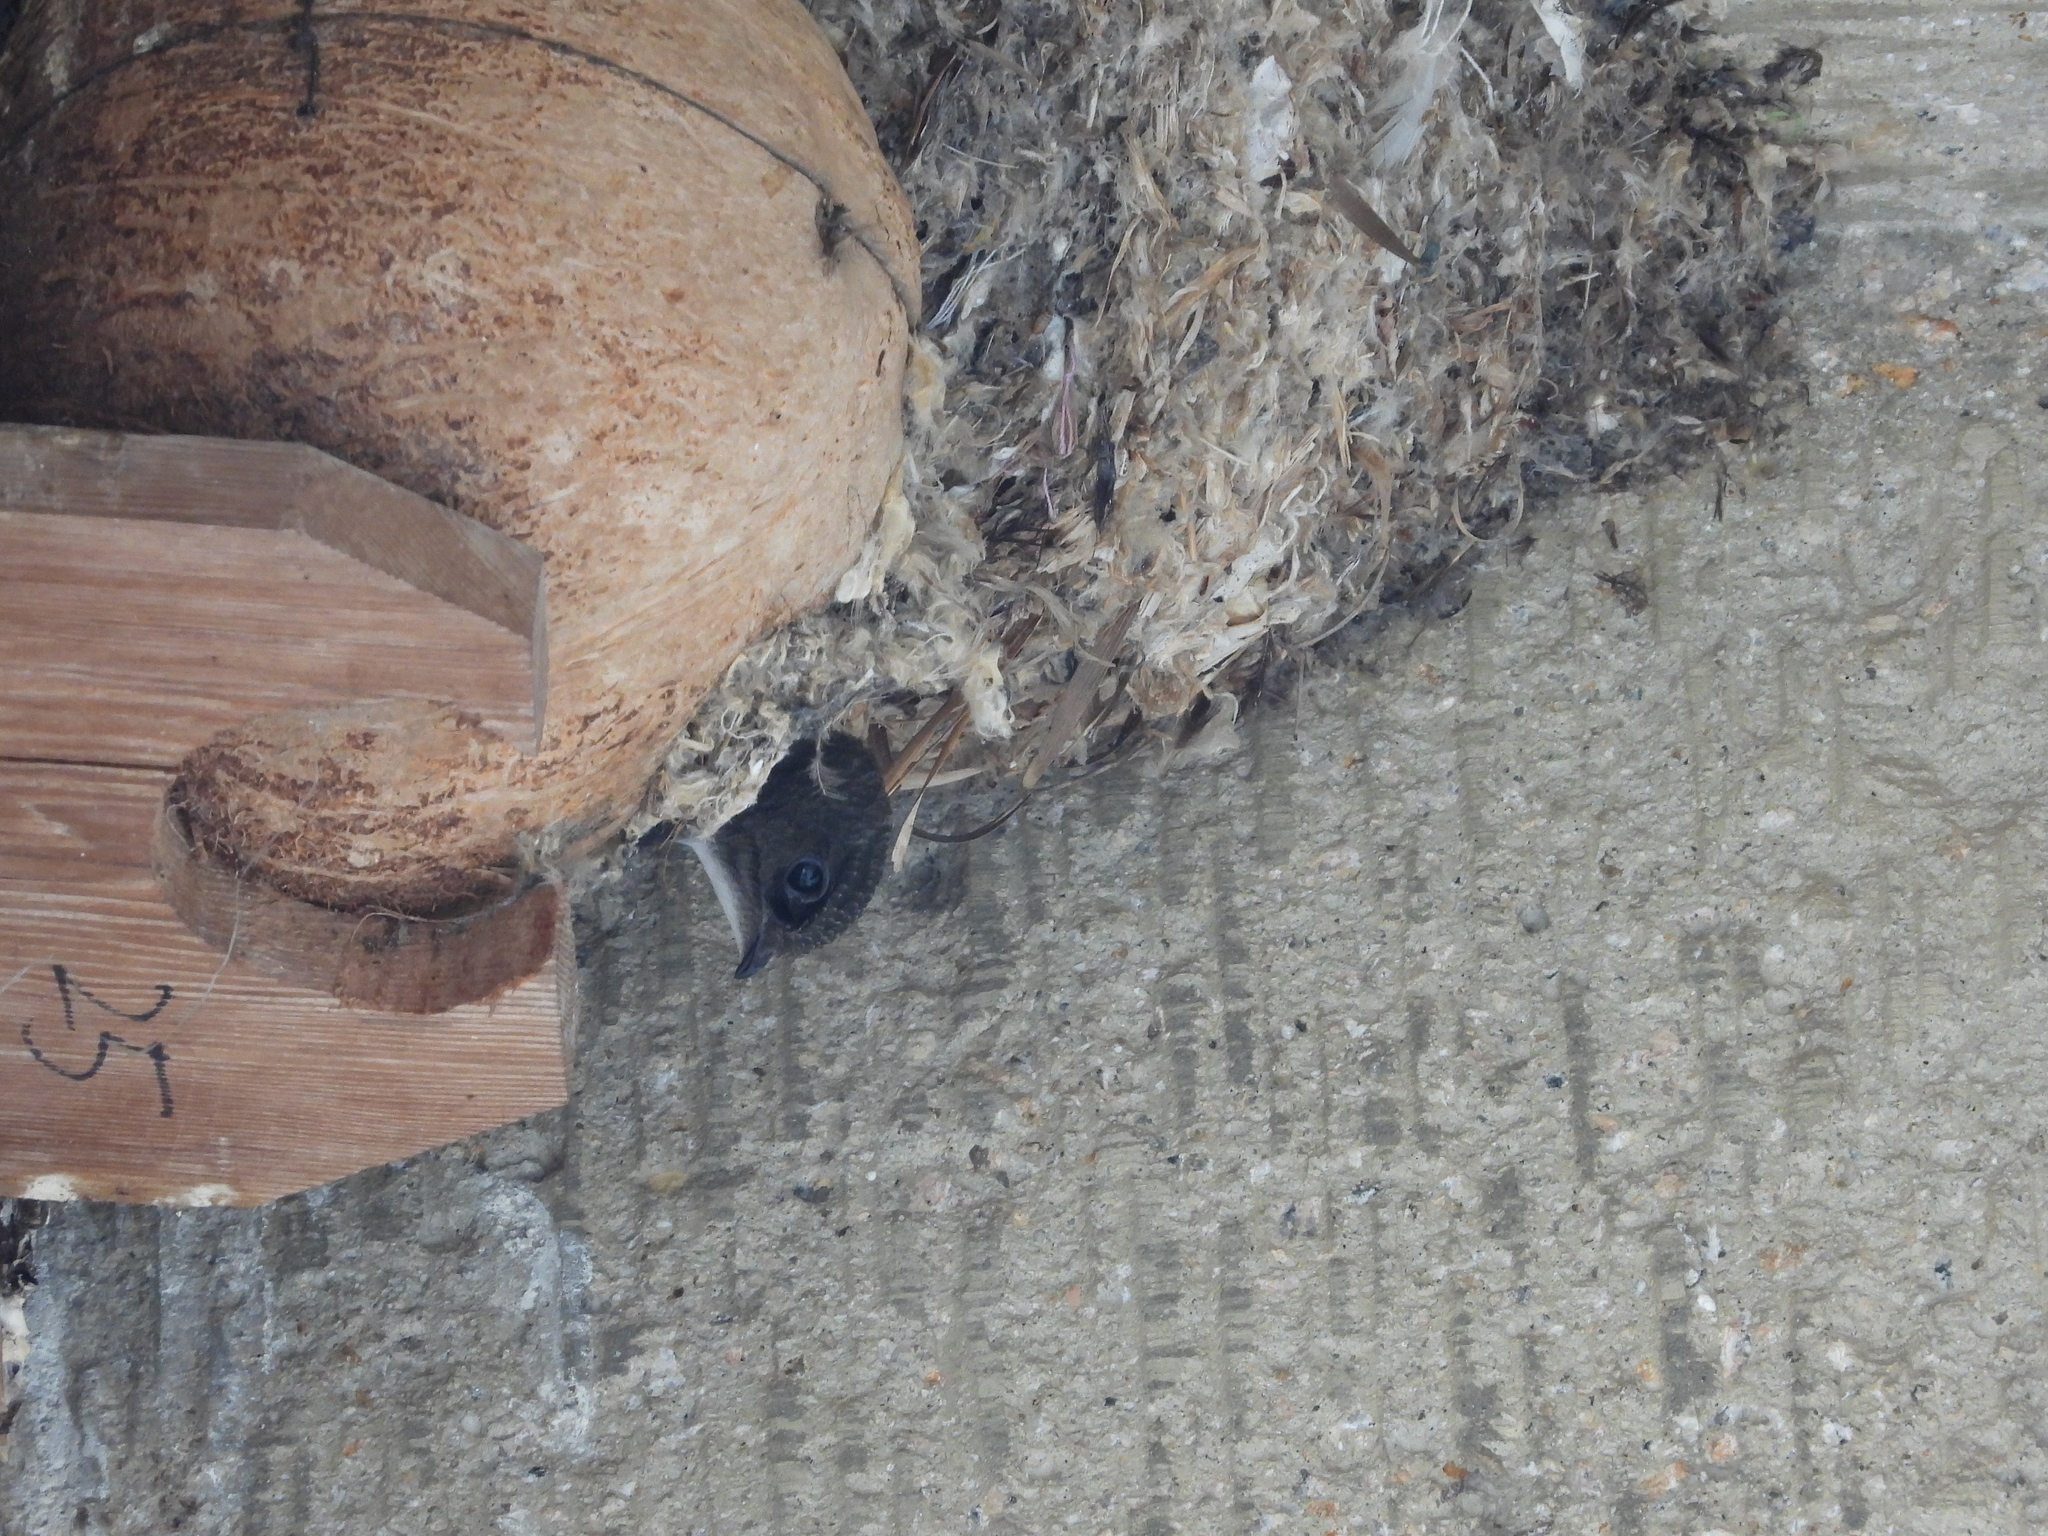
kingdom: Animalia
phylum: Chordata
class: Aves
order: Apodiformes
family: Apodidae
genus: Apus
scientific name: Apus nipalensis
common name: House swift
